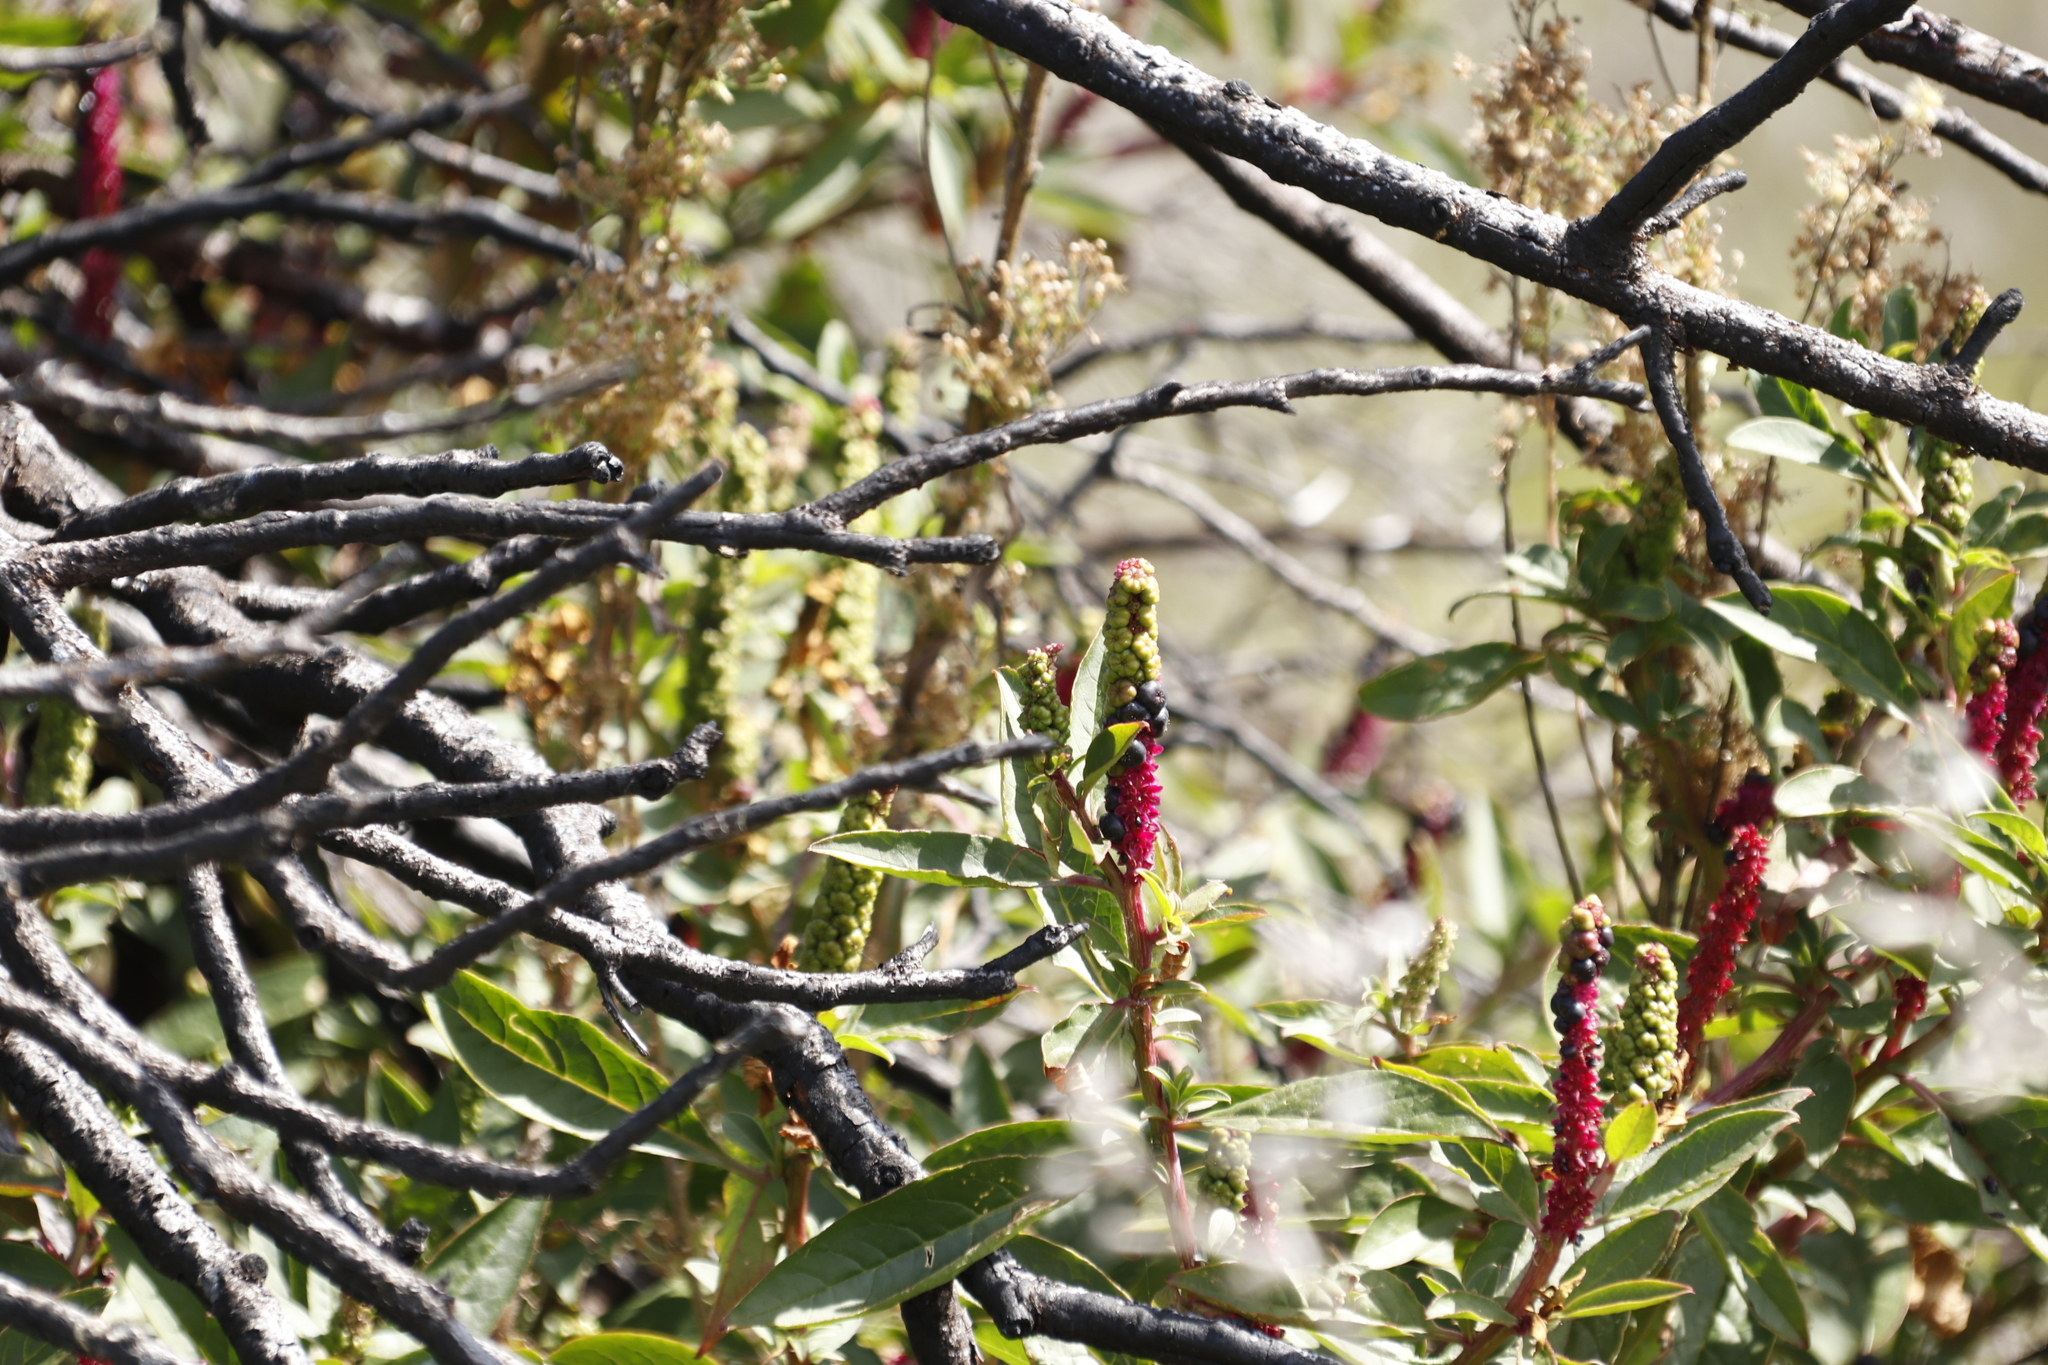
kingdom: Plantae
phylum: Tracheophyta
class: Magnoliopsida
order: Caryophyllales
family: Phytolaccaceae
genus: Phytolacca
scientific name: Phytolacca icosandra
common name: Button pokeweed
